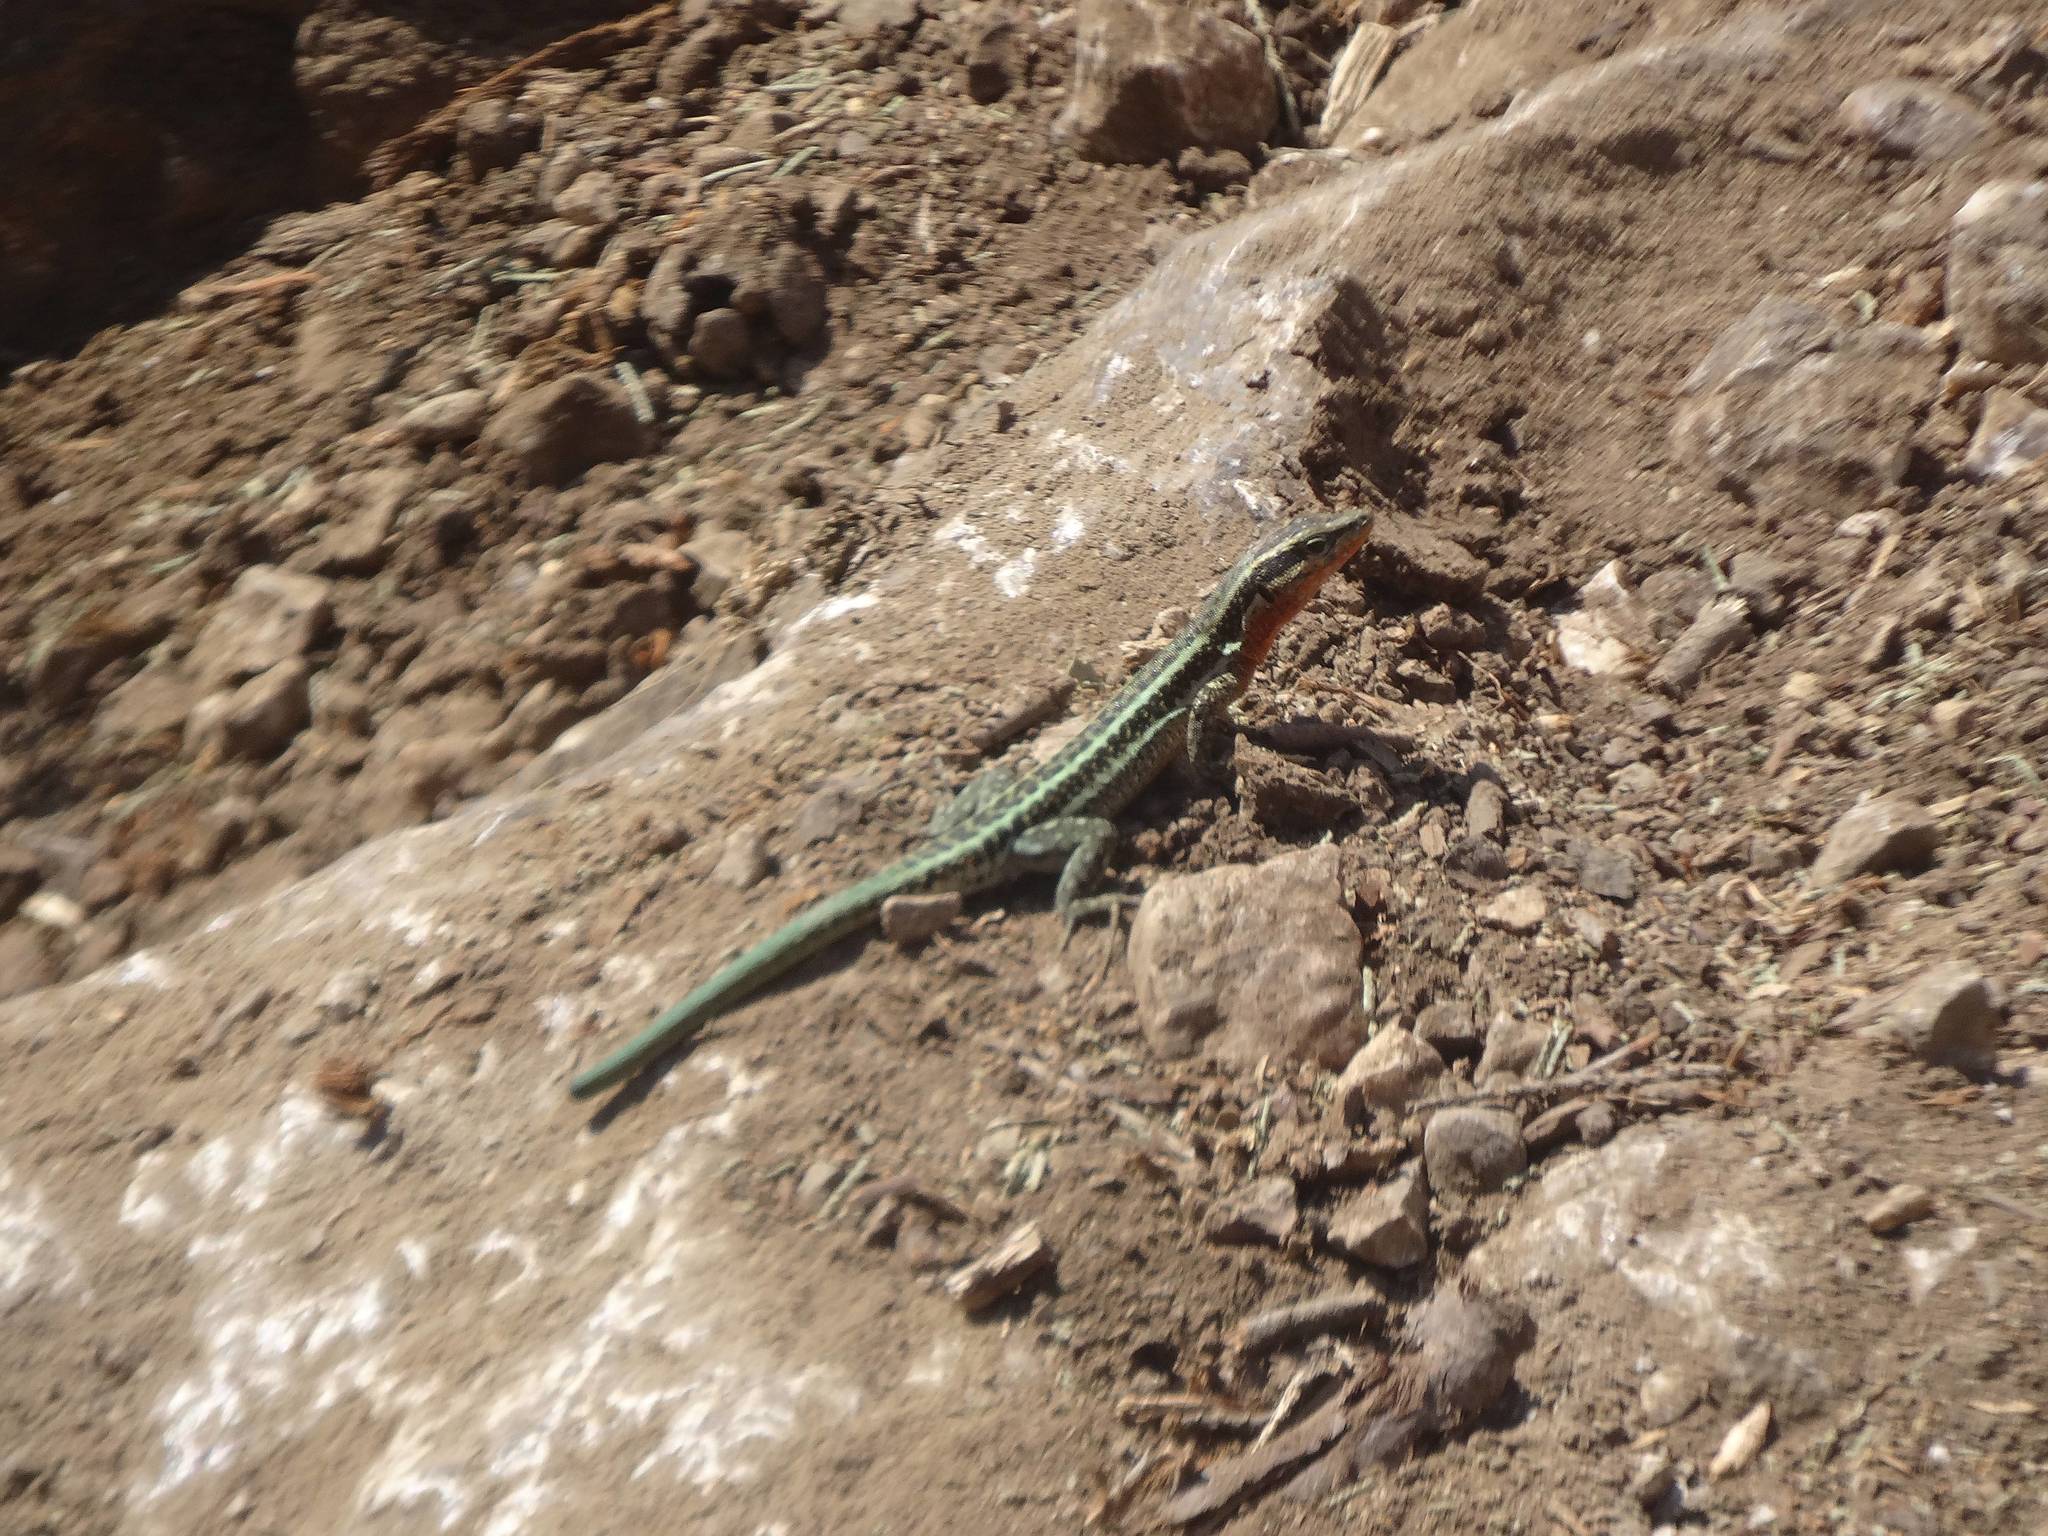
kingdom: Animalia
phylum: Chordata
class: Squamata
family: Lacertidae
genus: Anatololacerta
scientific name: Anatololacerta finikensis
